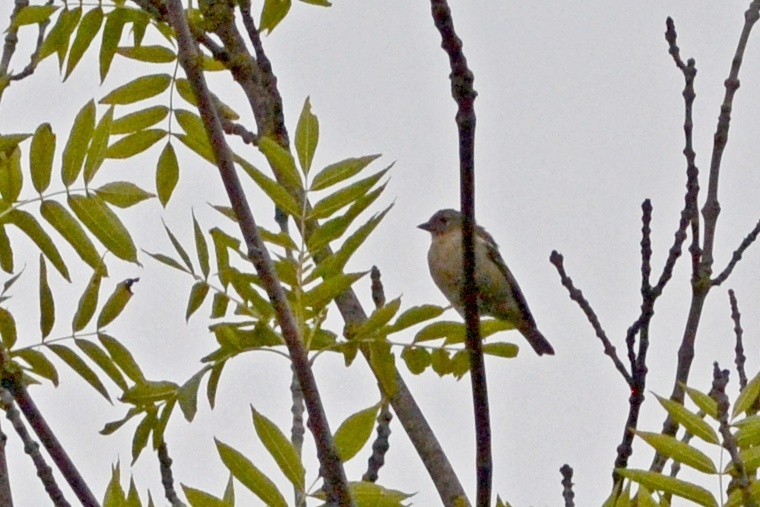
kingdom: Animalia
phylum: Chordata
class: Aves
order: Passeriformes
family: Fringillidae
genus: Fringilla
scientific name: Fringilla coelebs
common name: Common chaffinch
